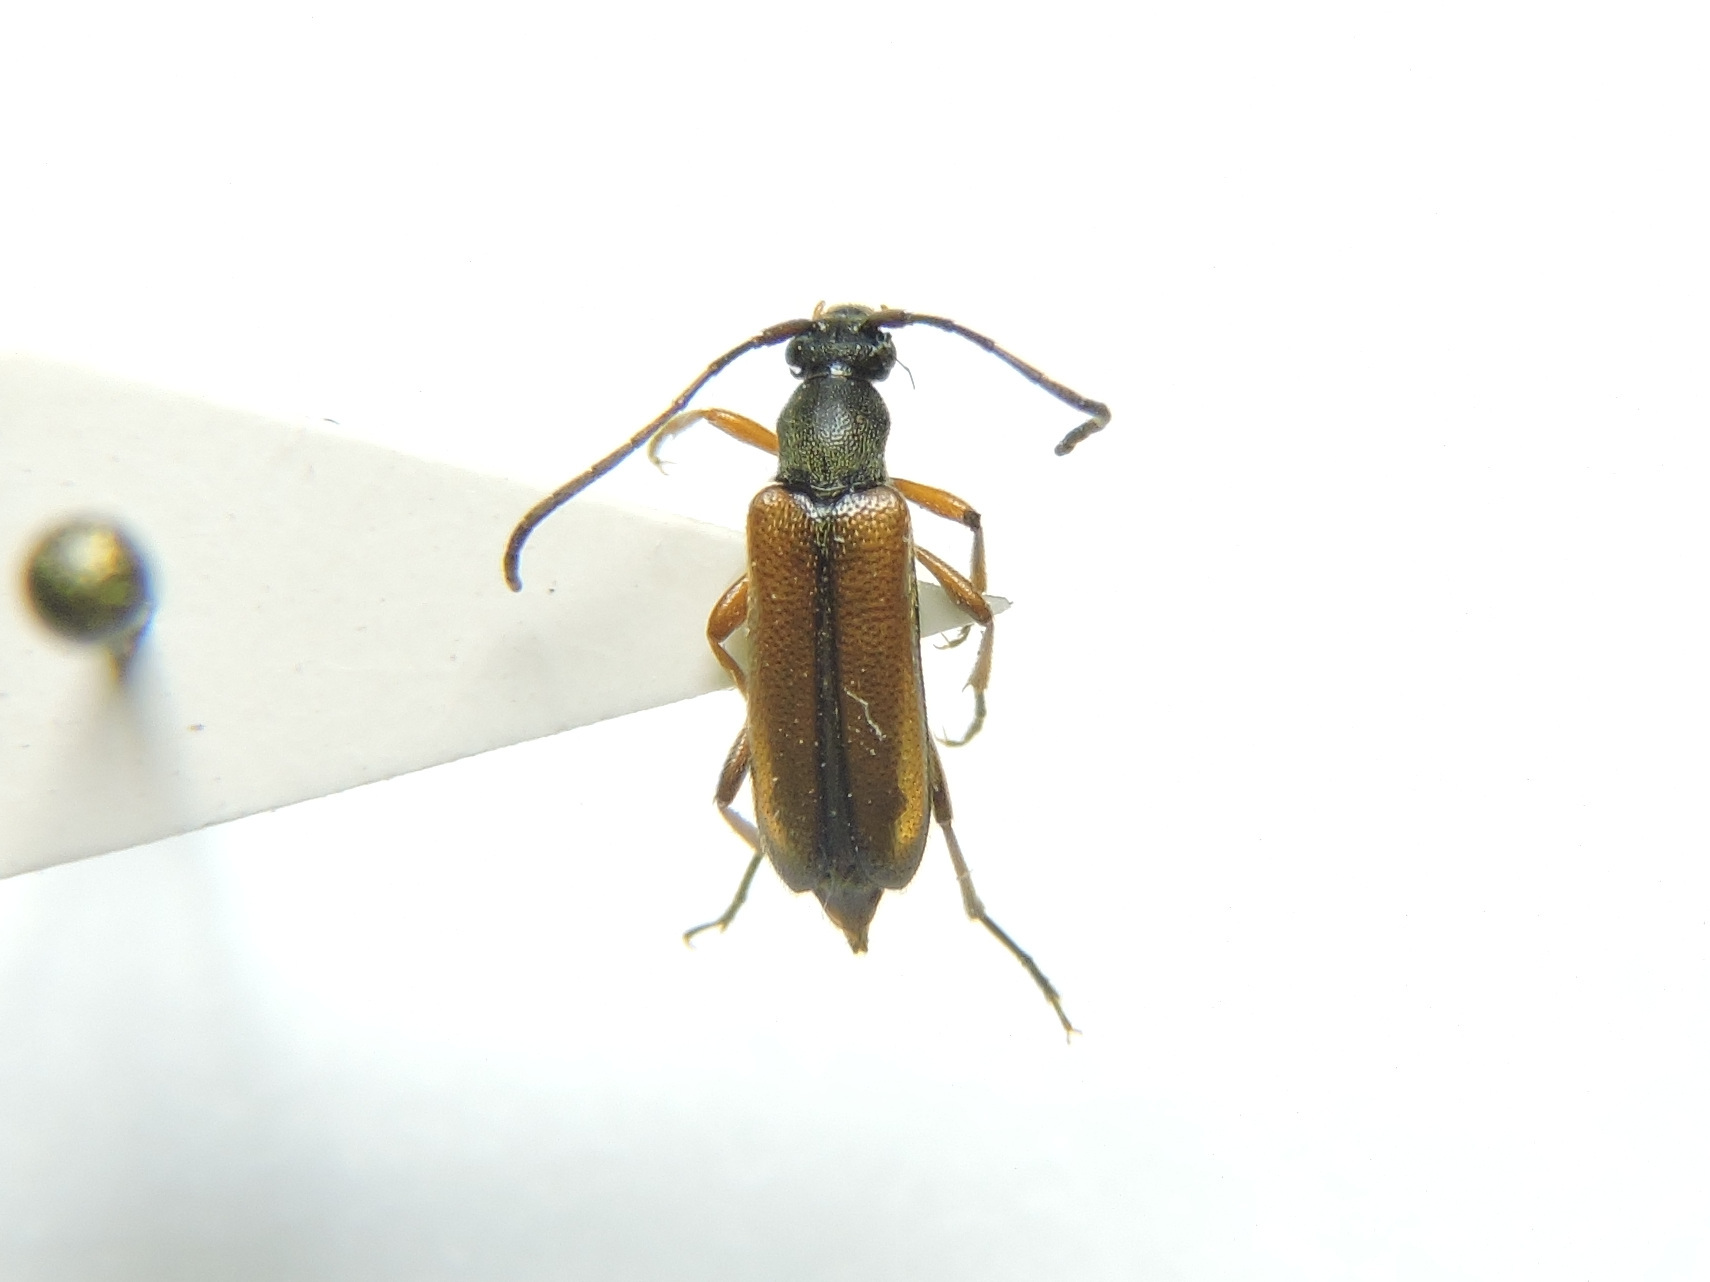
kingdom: Animalia
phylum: Arthropoda
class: Insecta
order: Coleoptera
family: Cerambycidae
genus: Alosterna
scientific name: Alosterna tabacicolor
